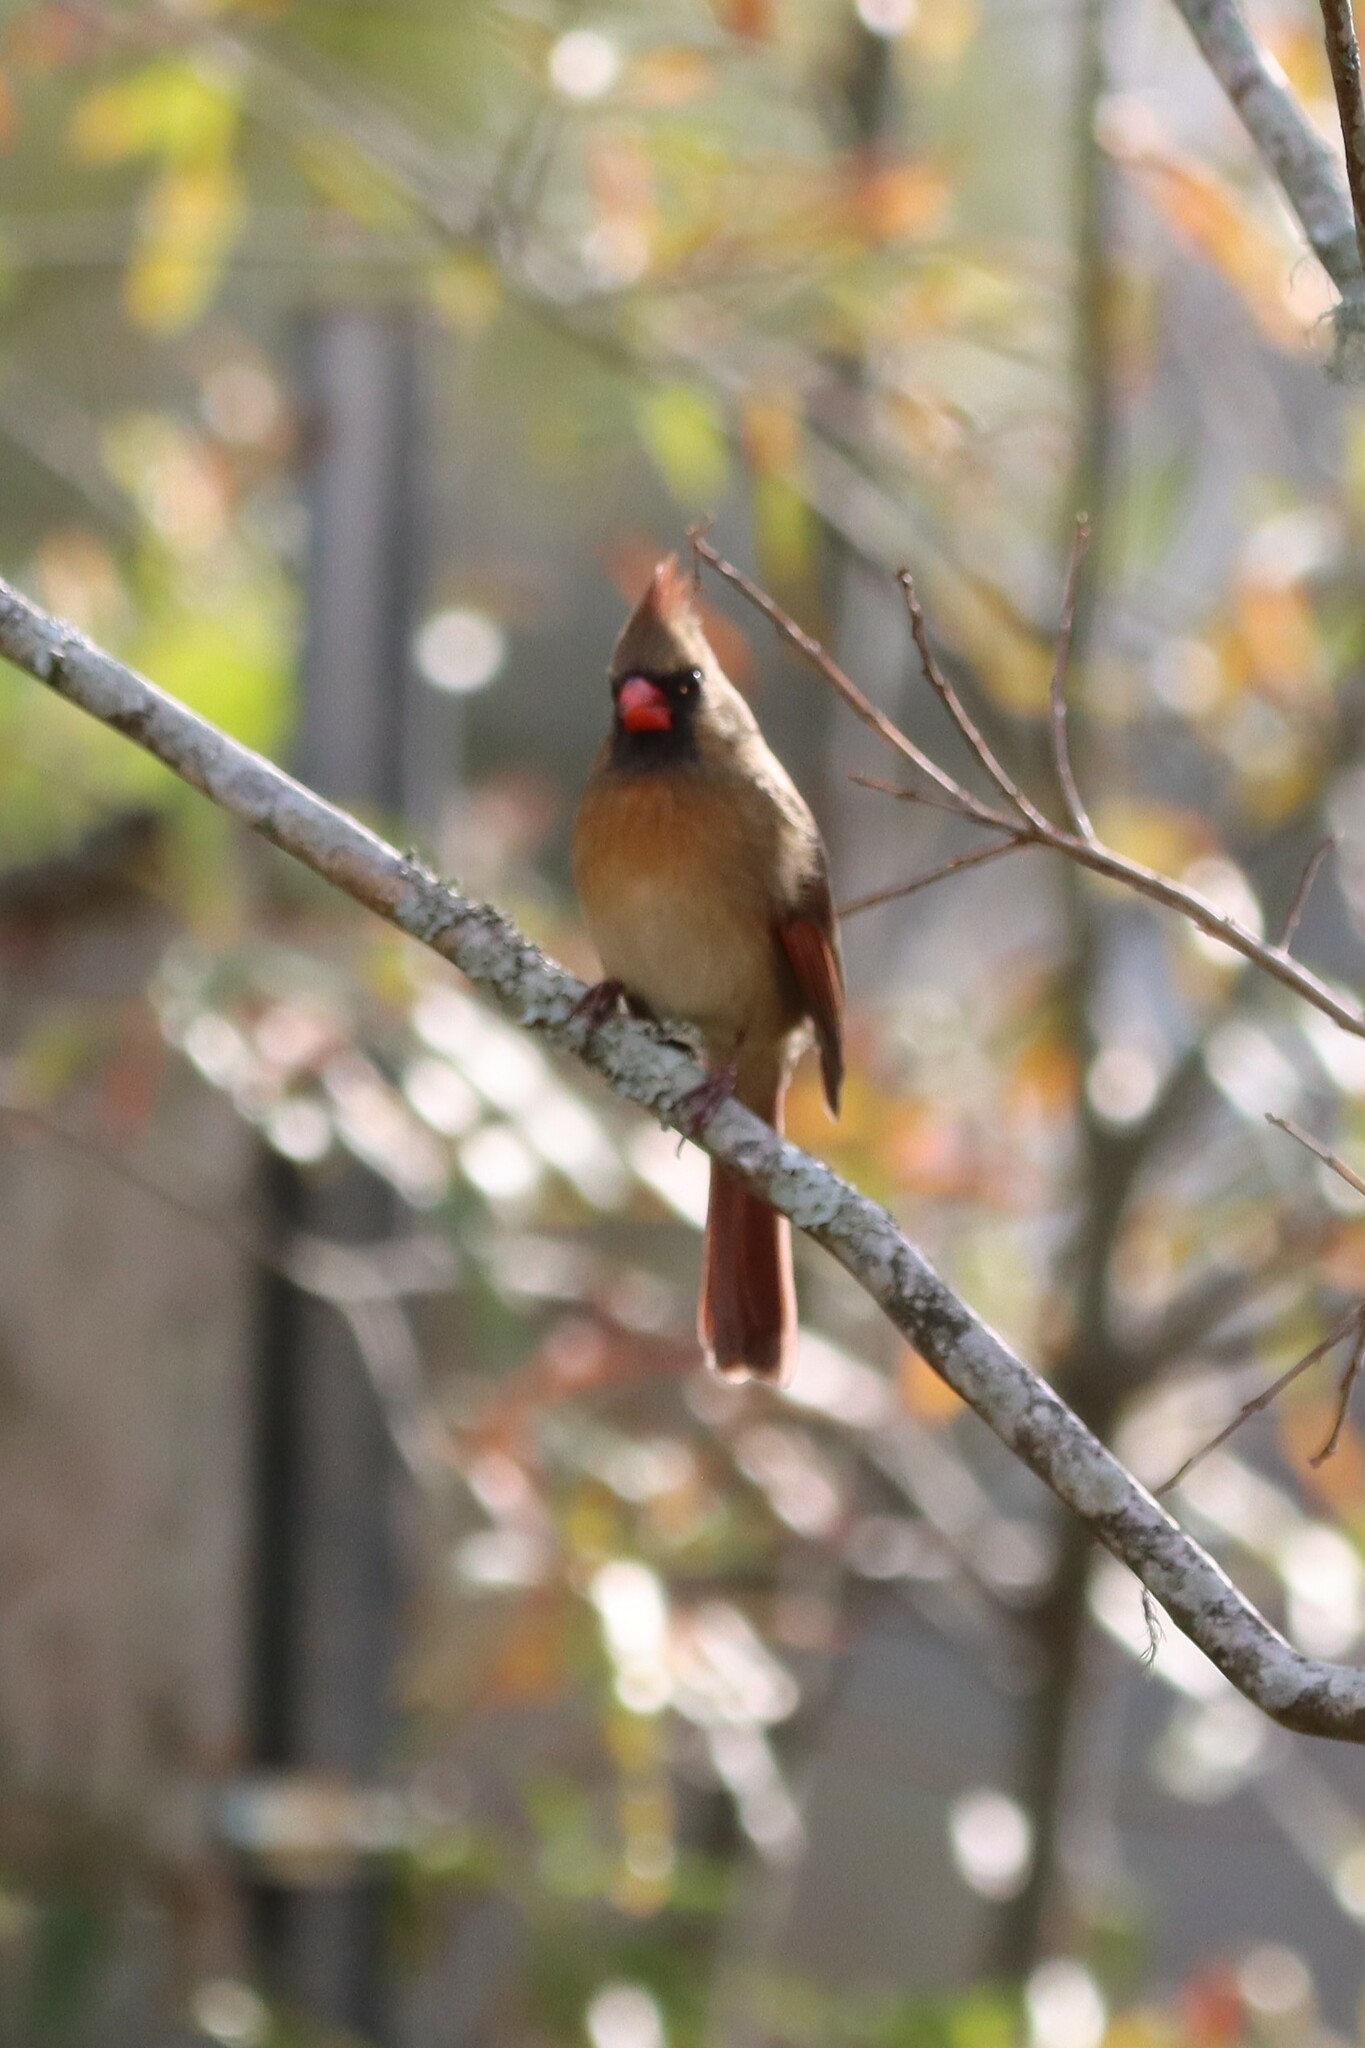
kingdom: Animalia
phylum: Chordata
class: Aves
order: Passeriformes
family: Cardinalidae
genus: Cardinalis
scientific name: Cardinalis cardinalis
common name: Northern cardinal
